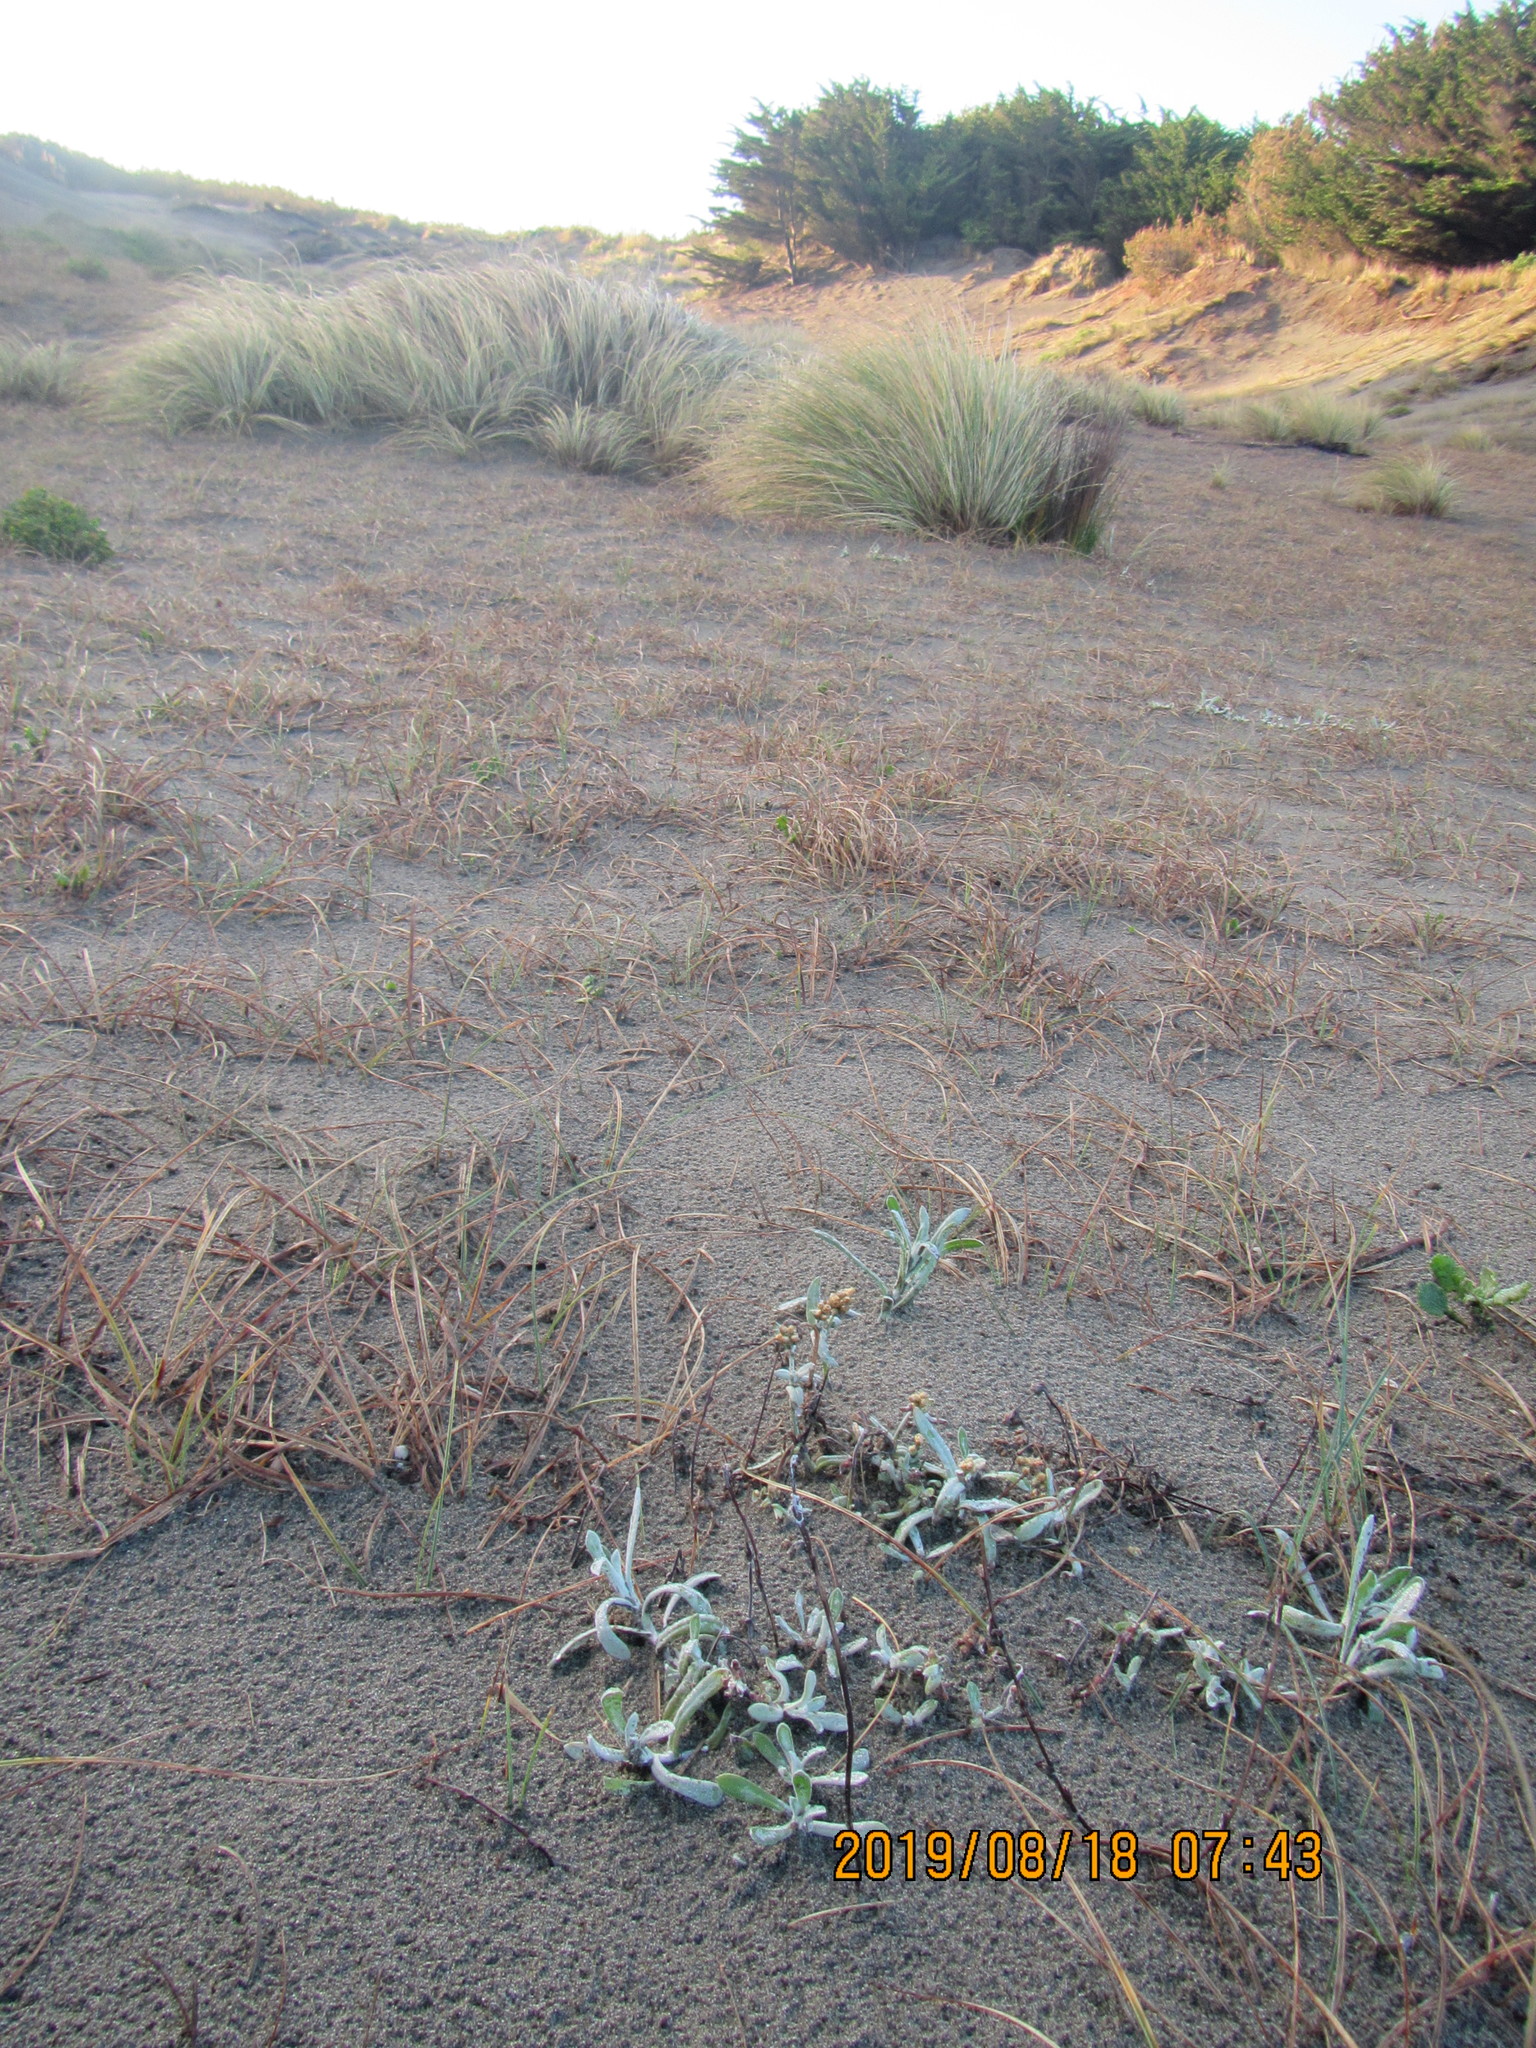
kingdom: Plantae
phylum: Tracheophyta
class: Magnoliopsida
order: Asterales
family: Asteraceae
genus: Helichrysum
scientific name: Helichrysum luteoalbum
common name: Daisy
